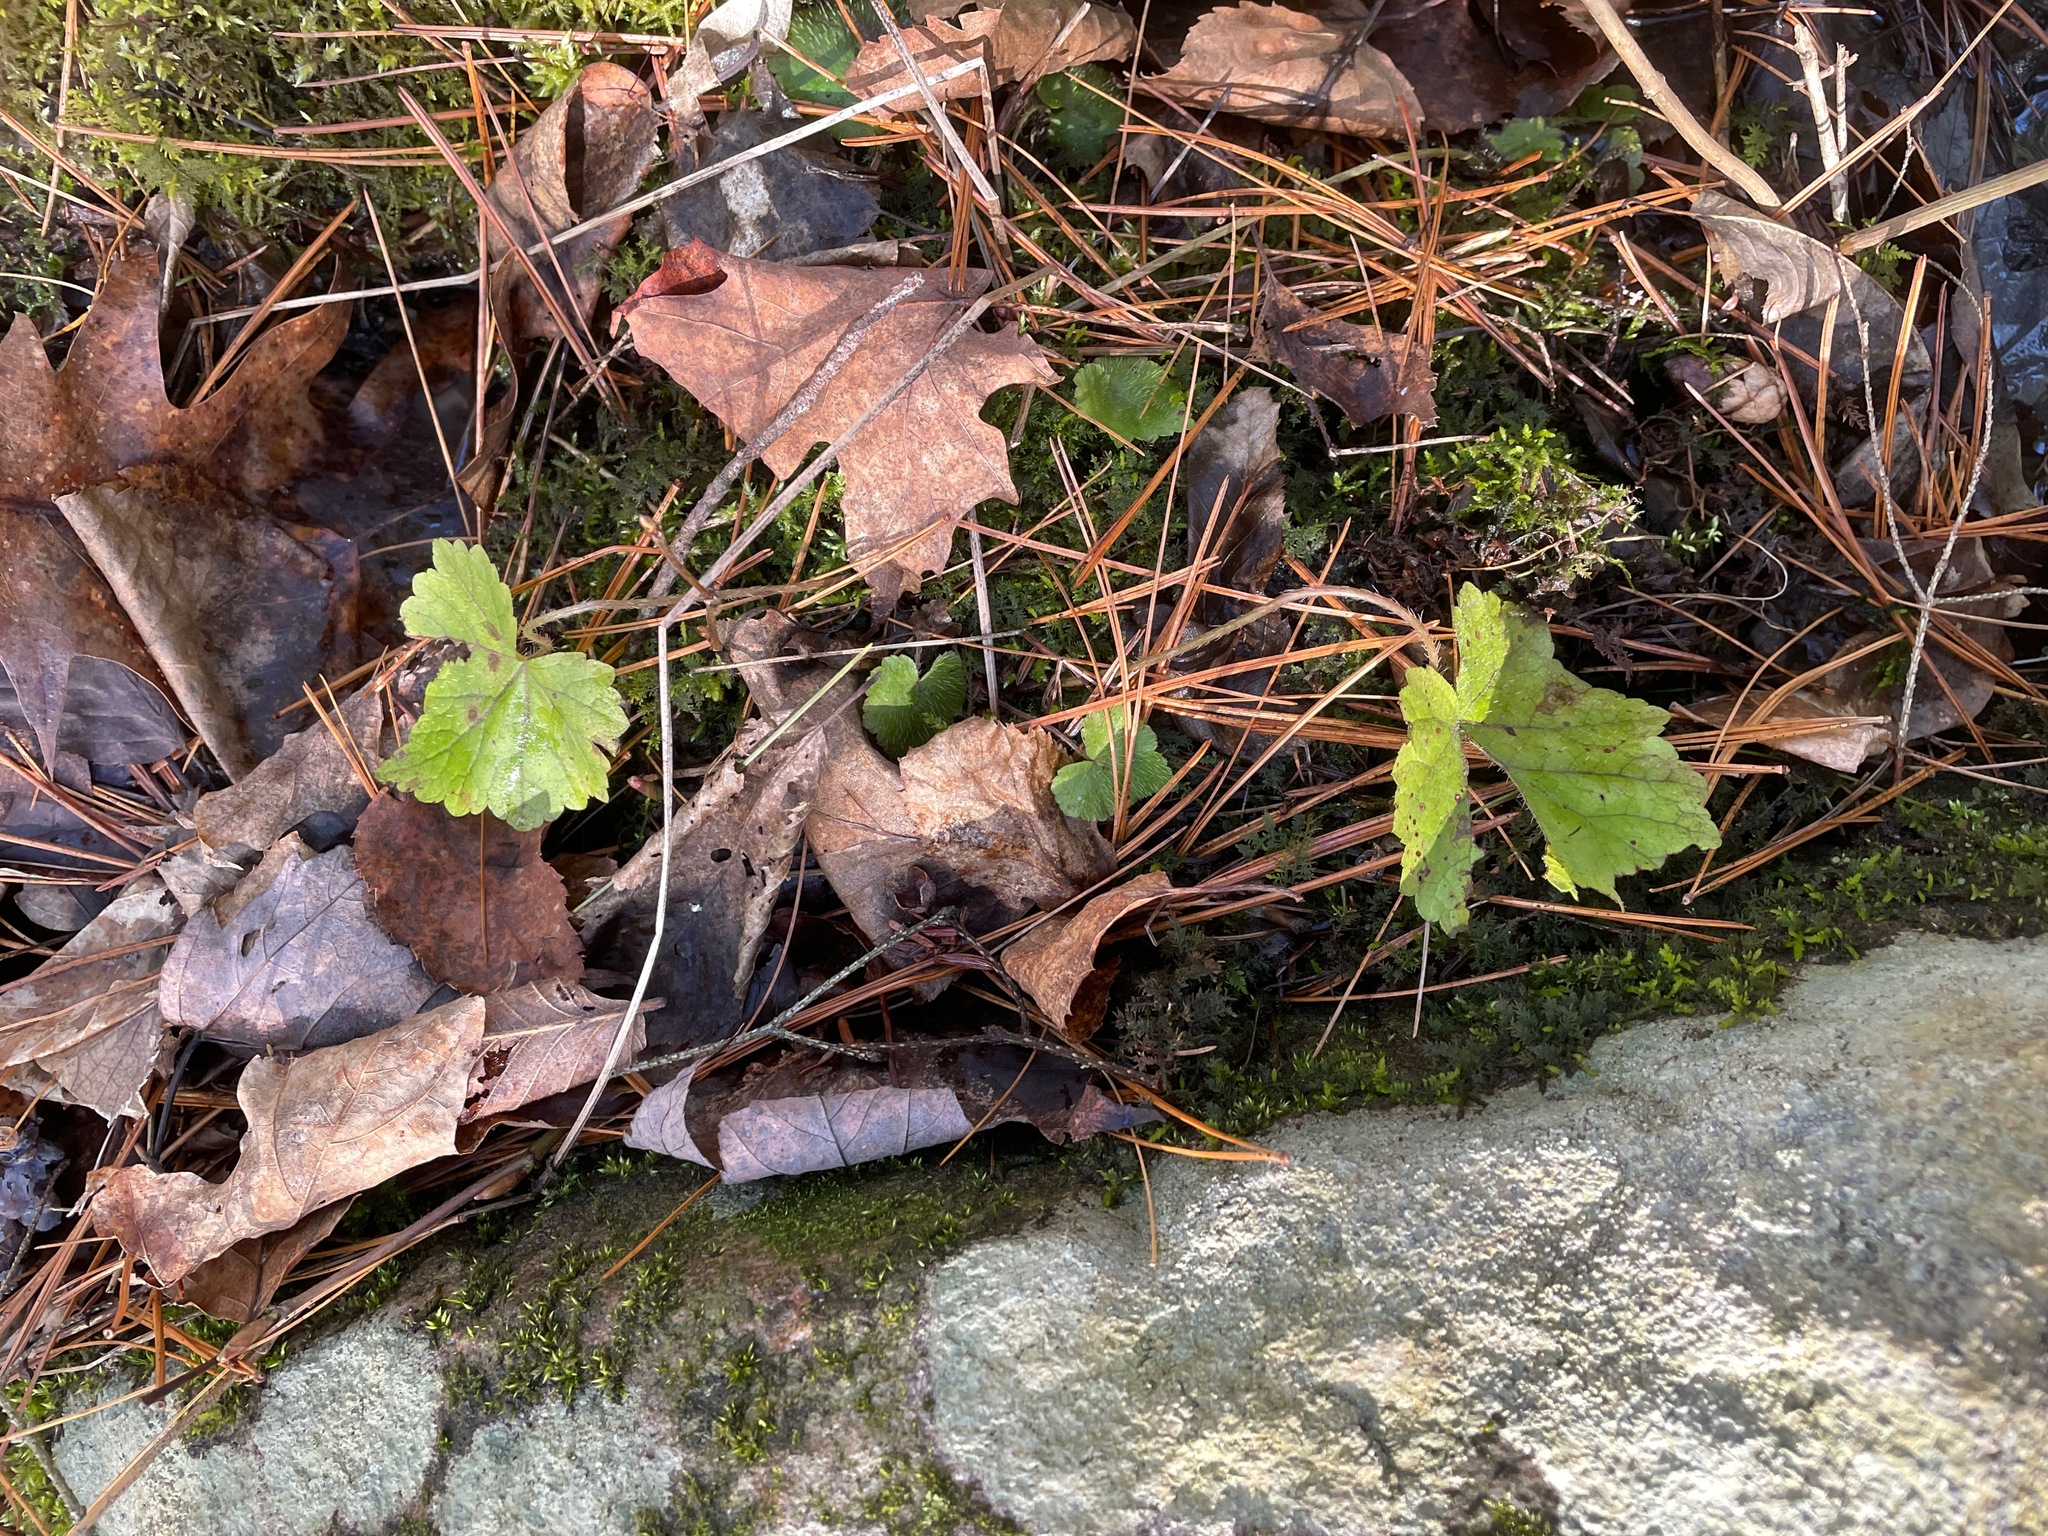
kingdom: Plantae
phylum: Tracheophyta
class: Magnoliopsida
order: Saxifragales
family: Saxifragaceae
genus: Mitella
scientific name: Mitella diphylla
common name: Coolwort
